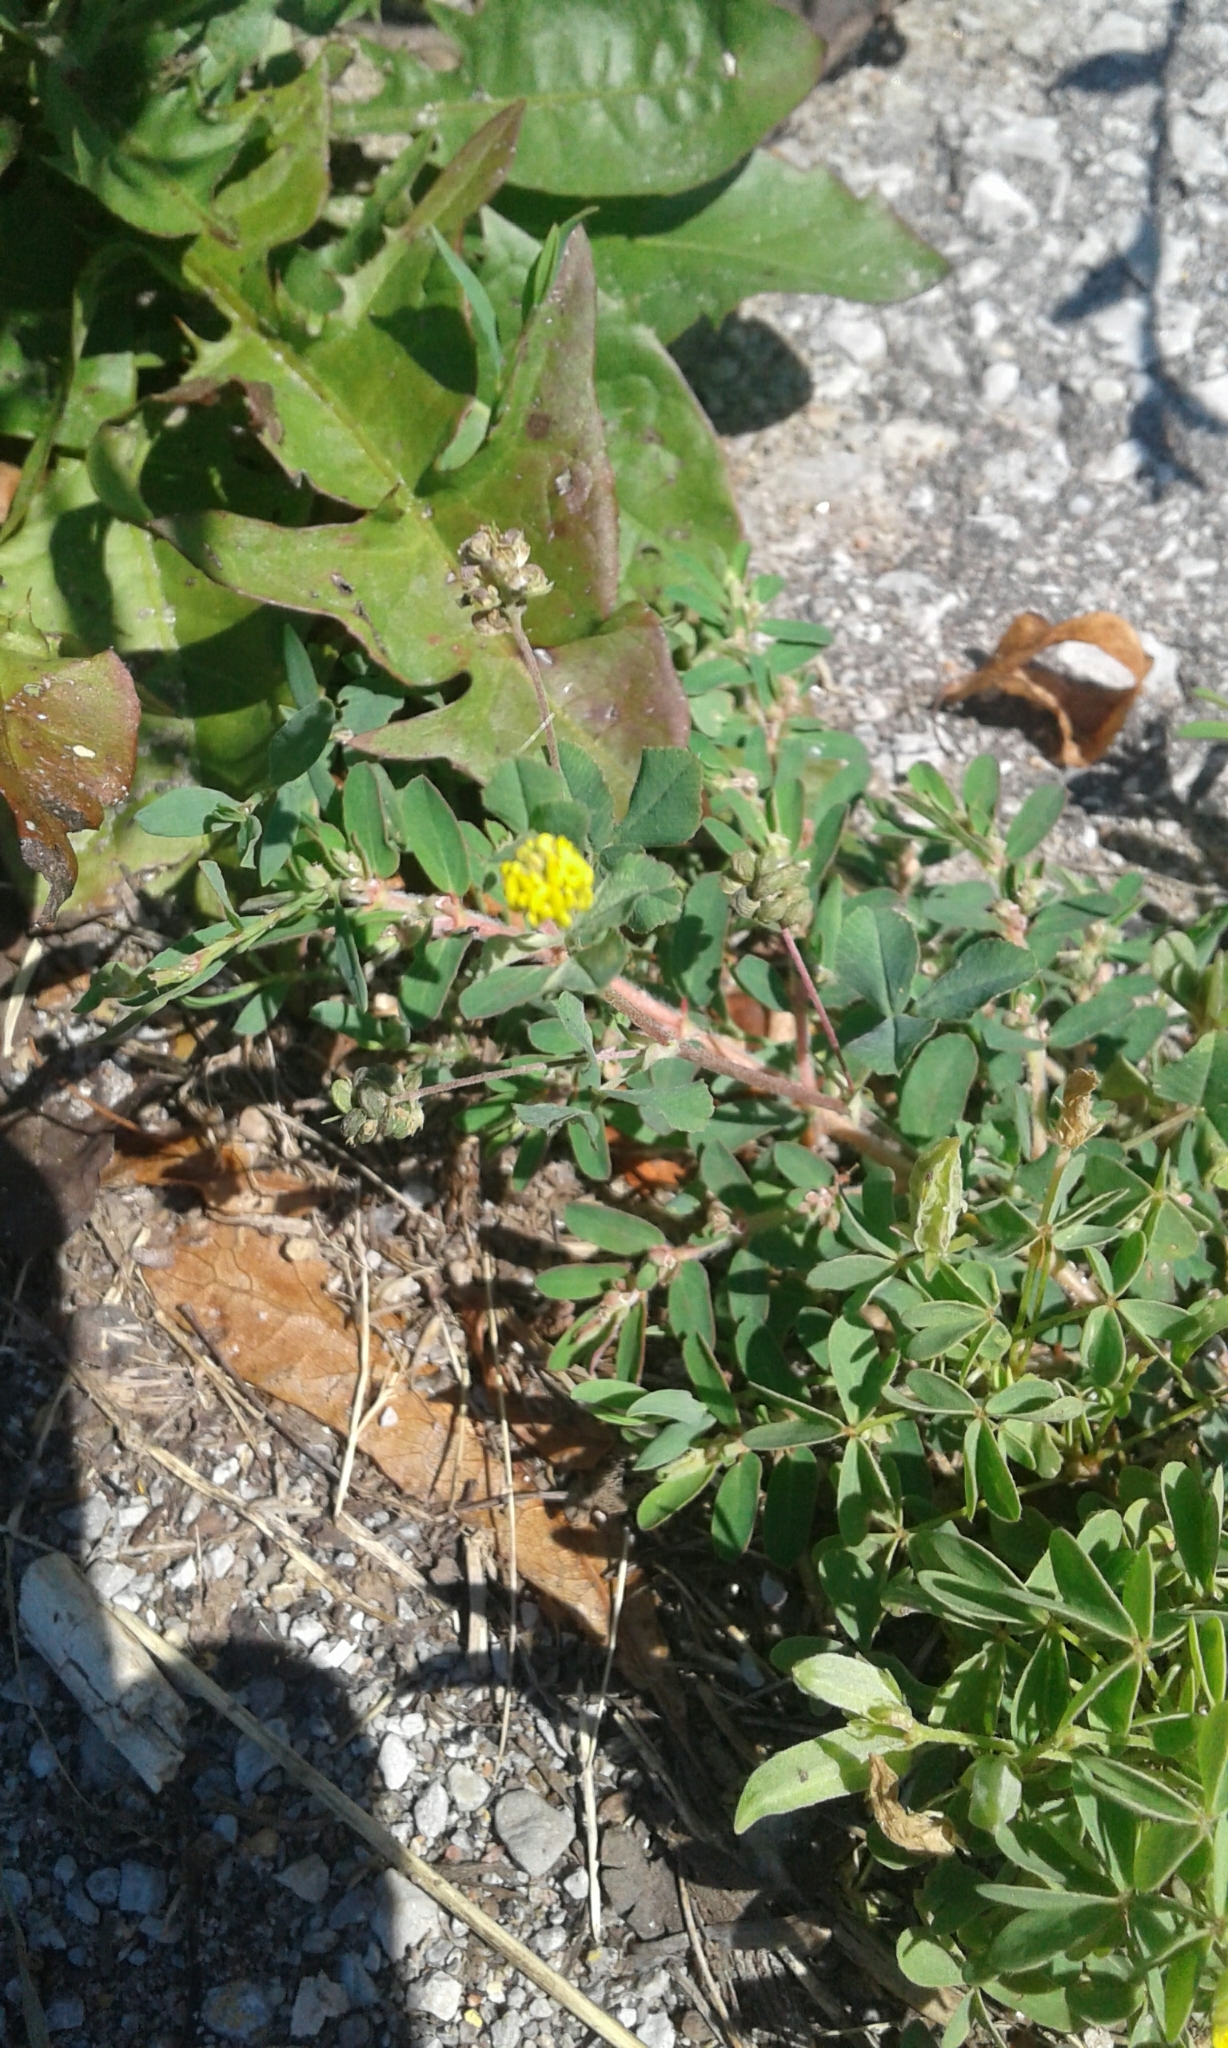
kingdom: Plantae
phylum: Tracheophyta
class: Magnoliopsida
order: Fabales
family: Fabaceae
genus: Medicago
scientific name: Medicago lupulina
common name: Black medick
